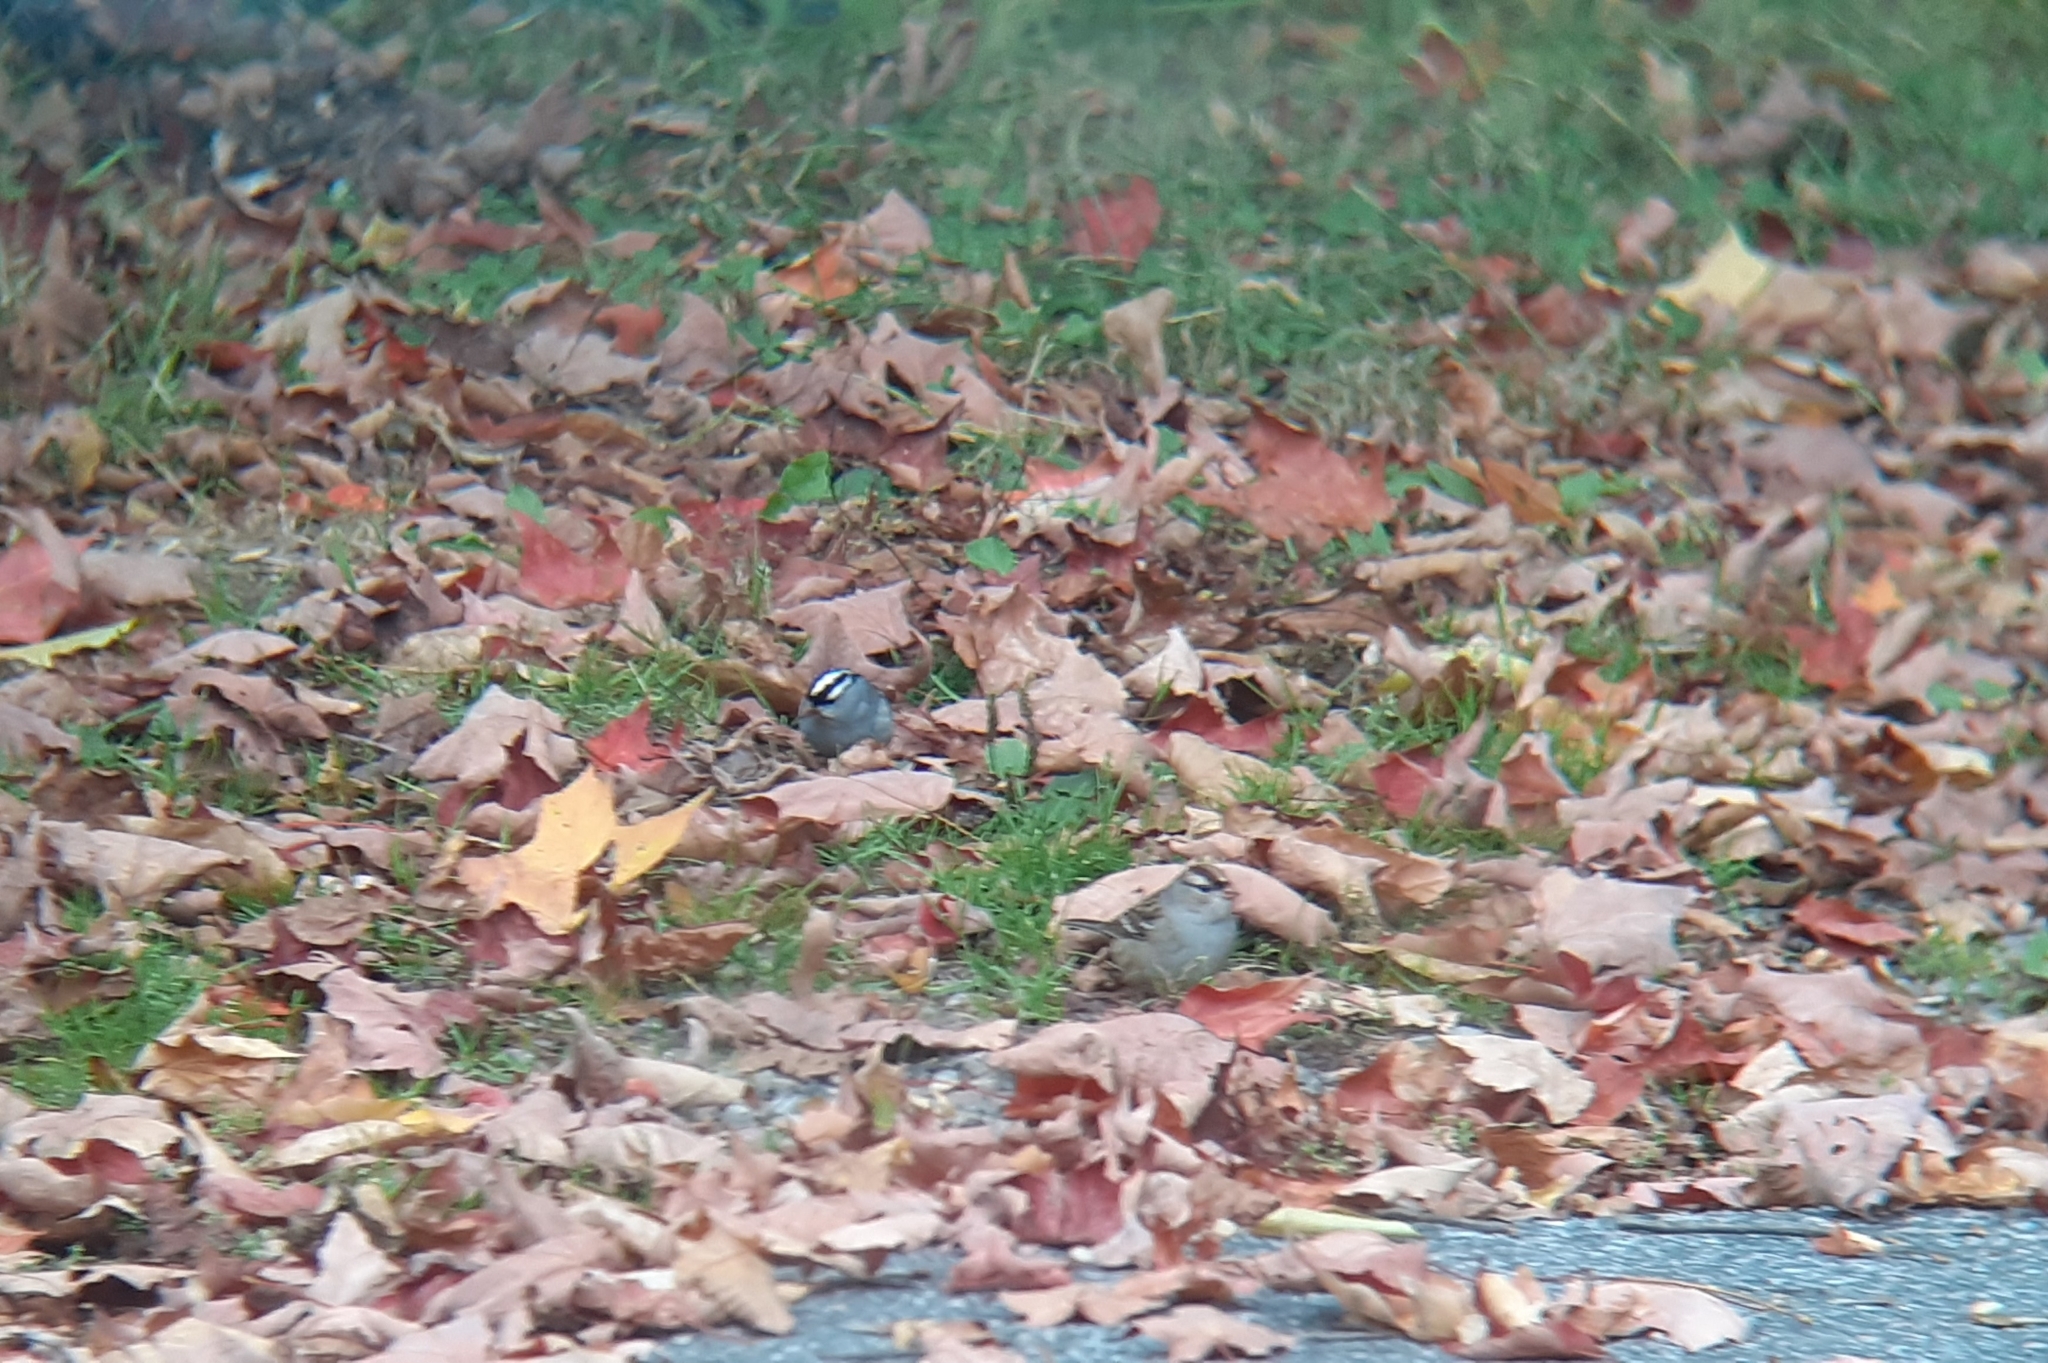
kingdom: Animalia
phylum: Chordata
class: Aves
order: Passeriformes
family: Passerellidae
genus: Zonotrichia
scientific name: Zonotrichia leucophrys
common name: White-crowned sparrow
